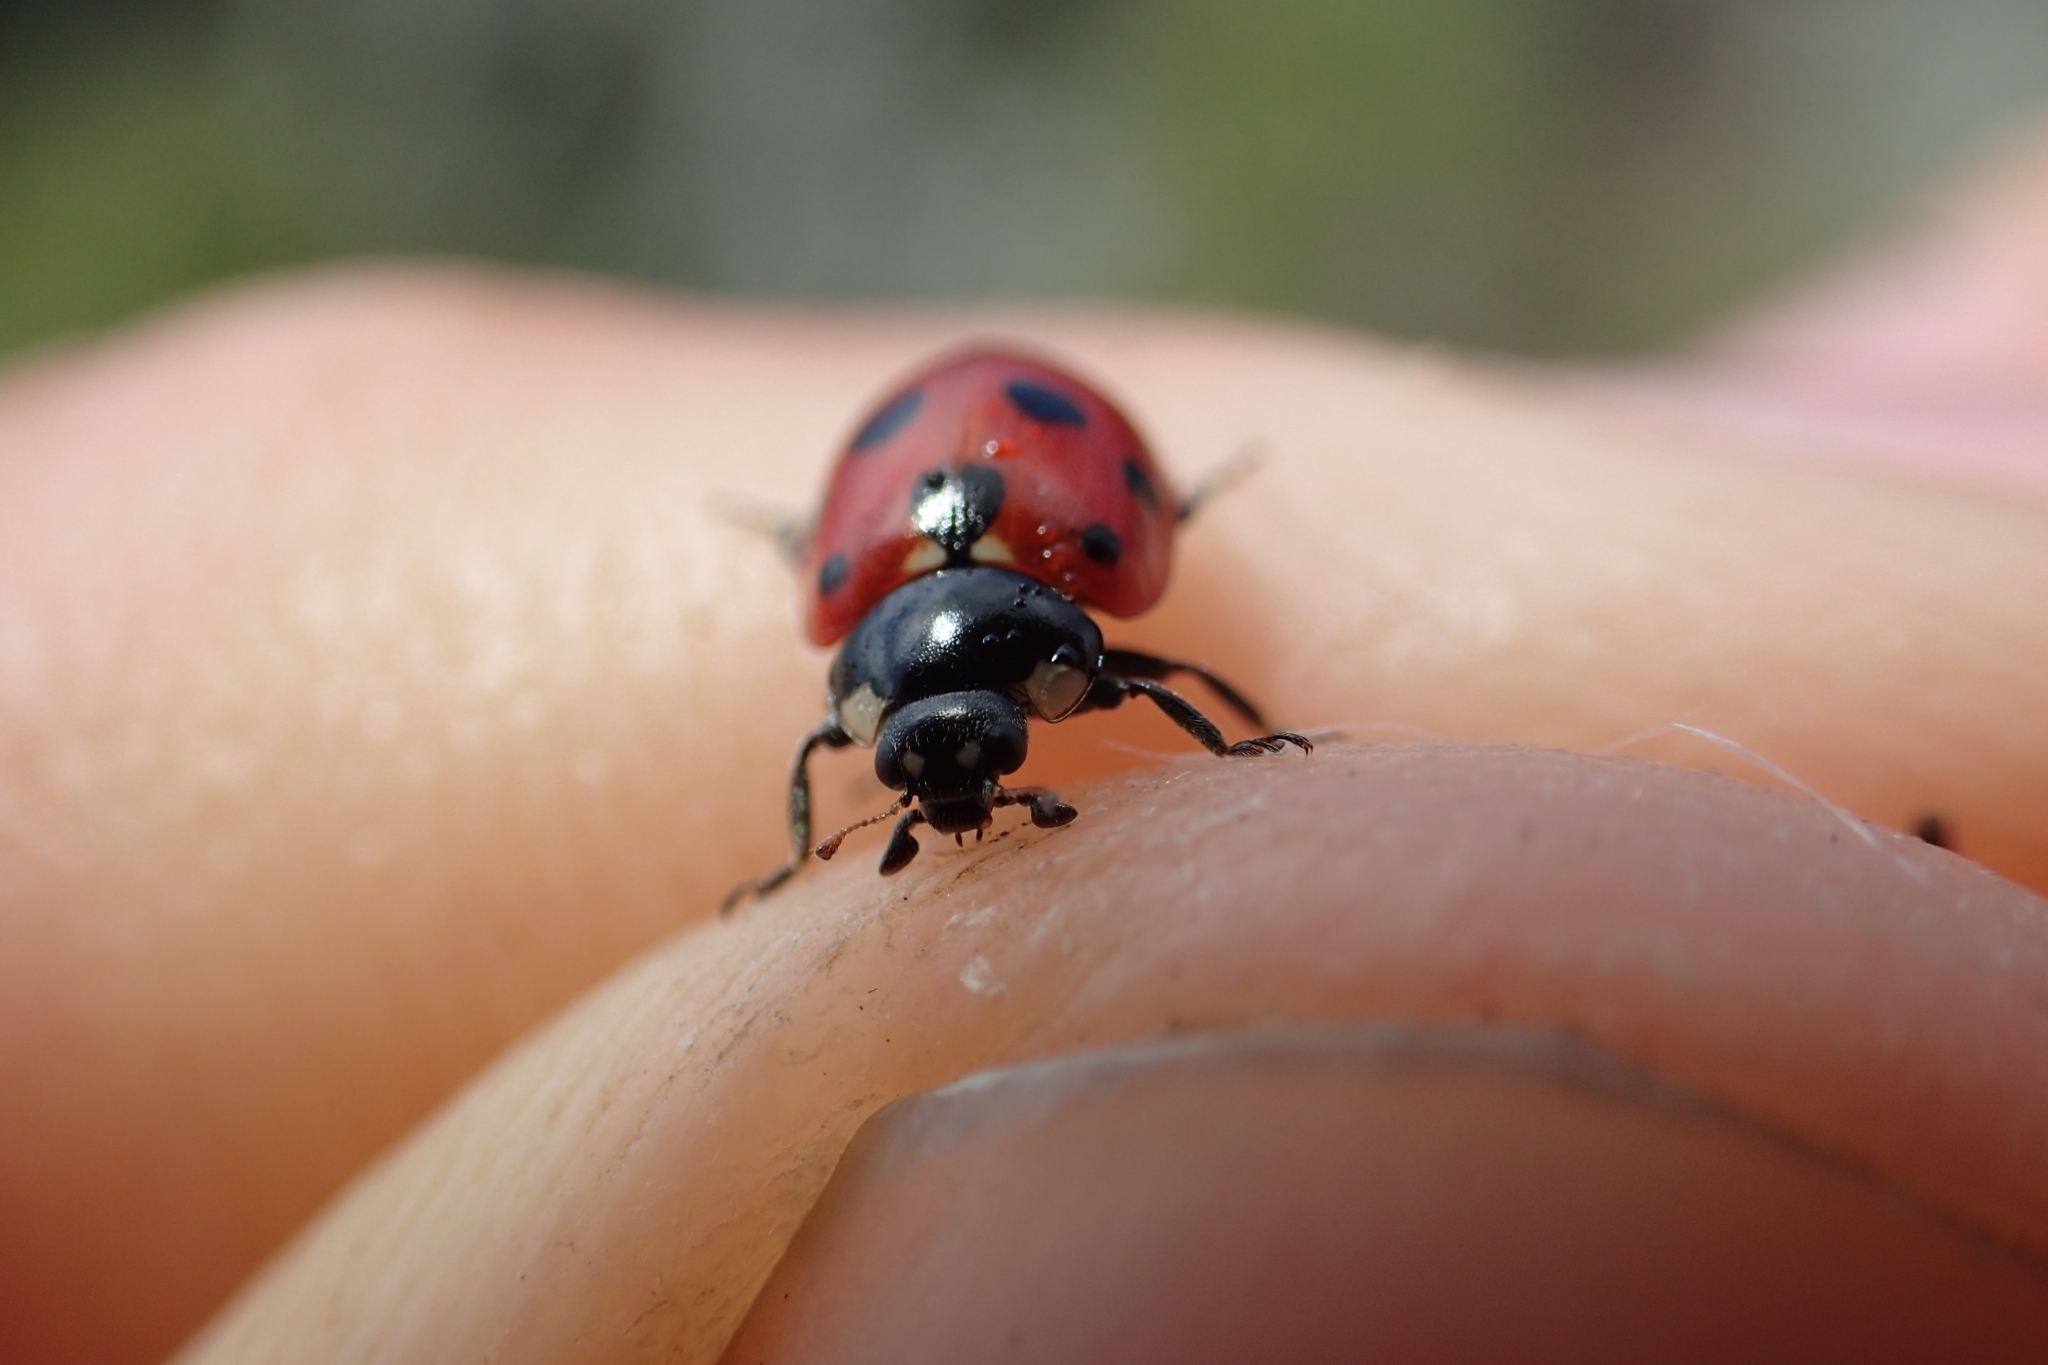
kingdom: Animalia
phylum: Arthropoda
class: Insecta
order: Coleoptera
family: Coccinellidae
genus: Coccinella
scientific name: Coccinella undecimpunctata
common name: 11-spot ladybird
